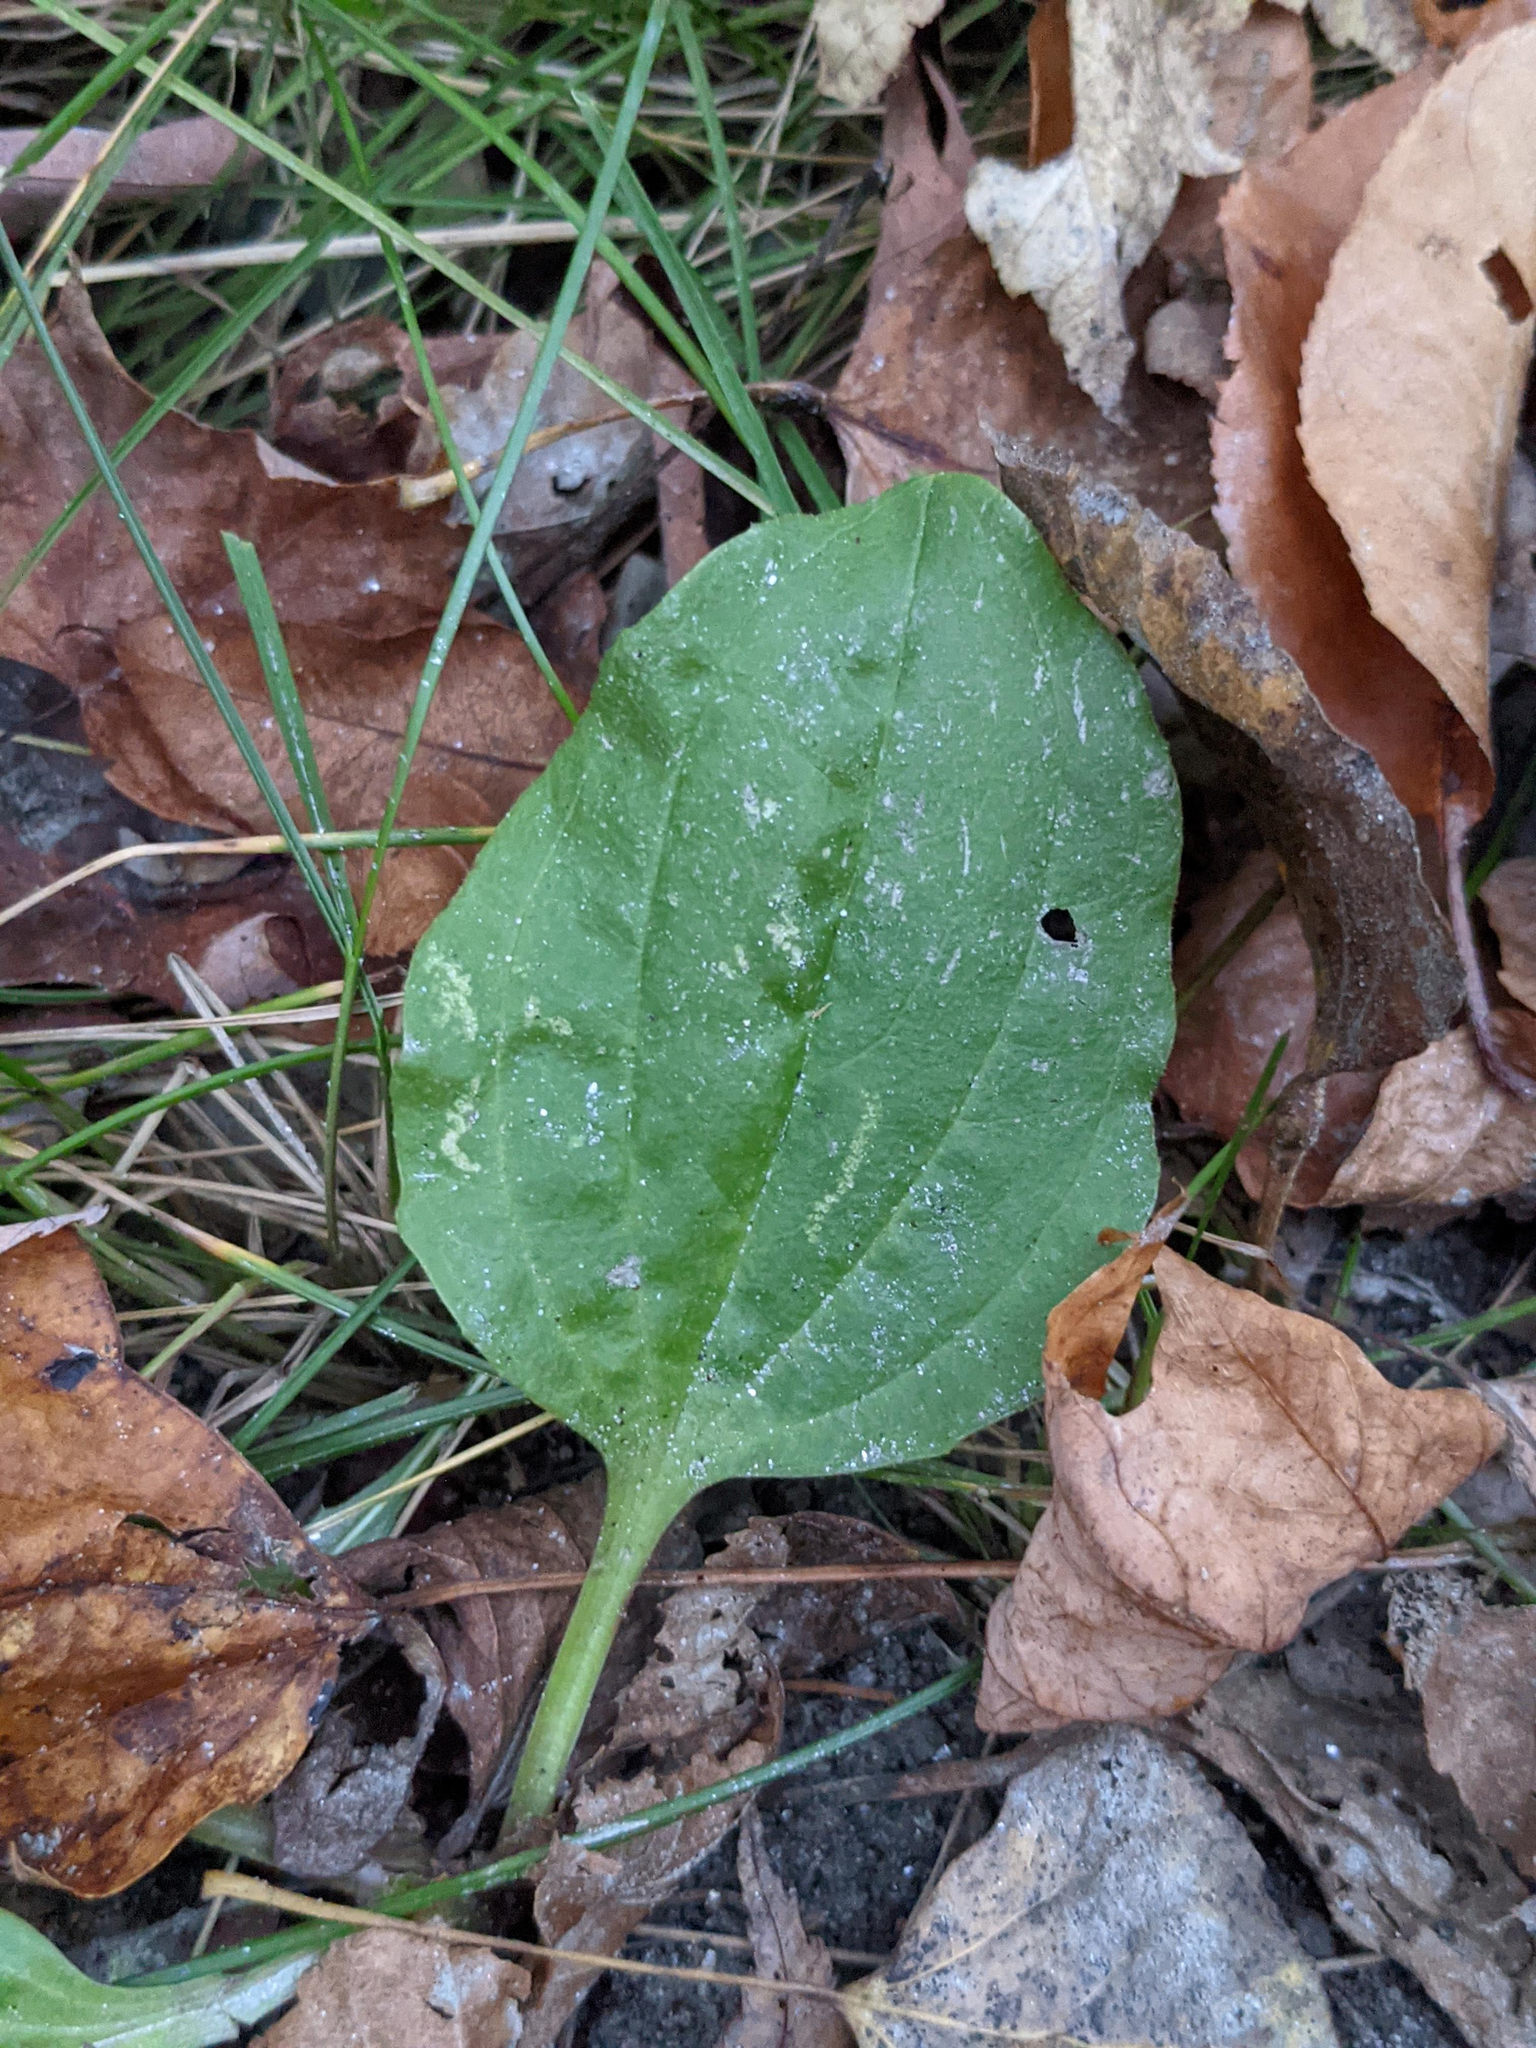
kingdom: Plantae
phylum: Tracheophyta
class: Magnoliopsida
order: Lamiales
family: Plantaginaceae
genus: Plantago
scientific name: Plantago major
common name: Common plantain
